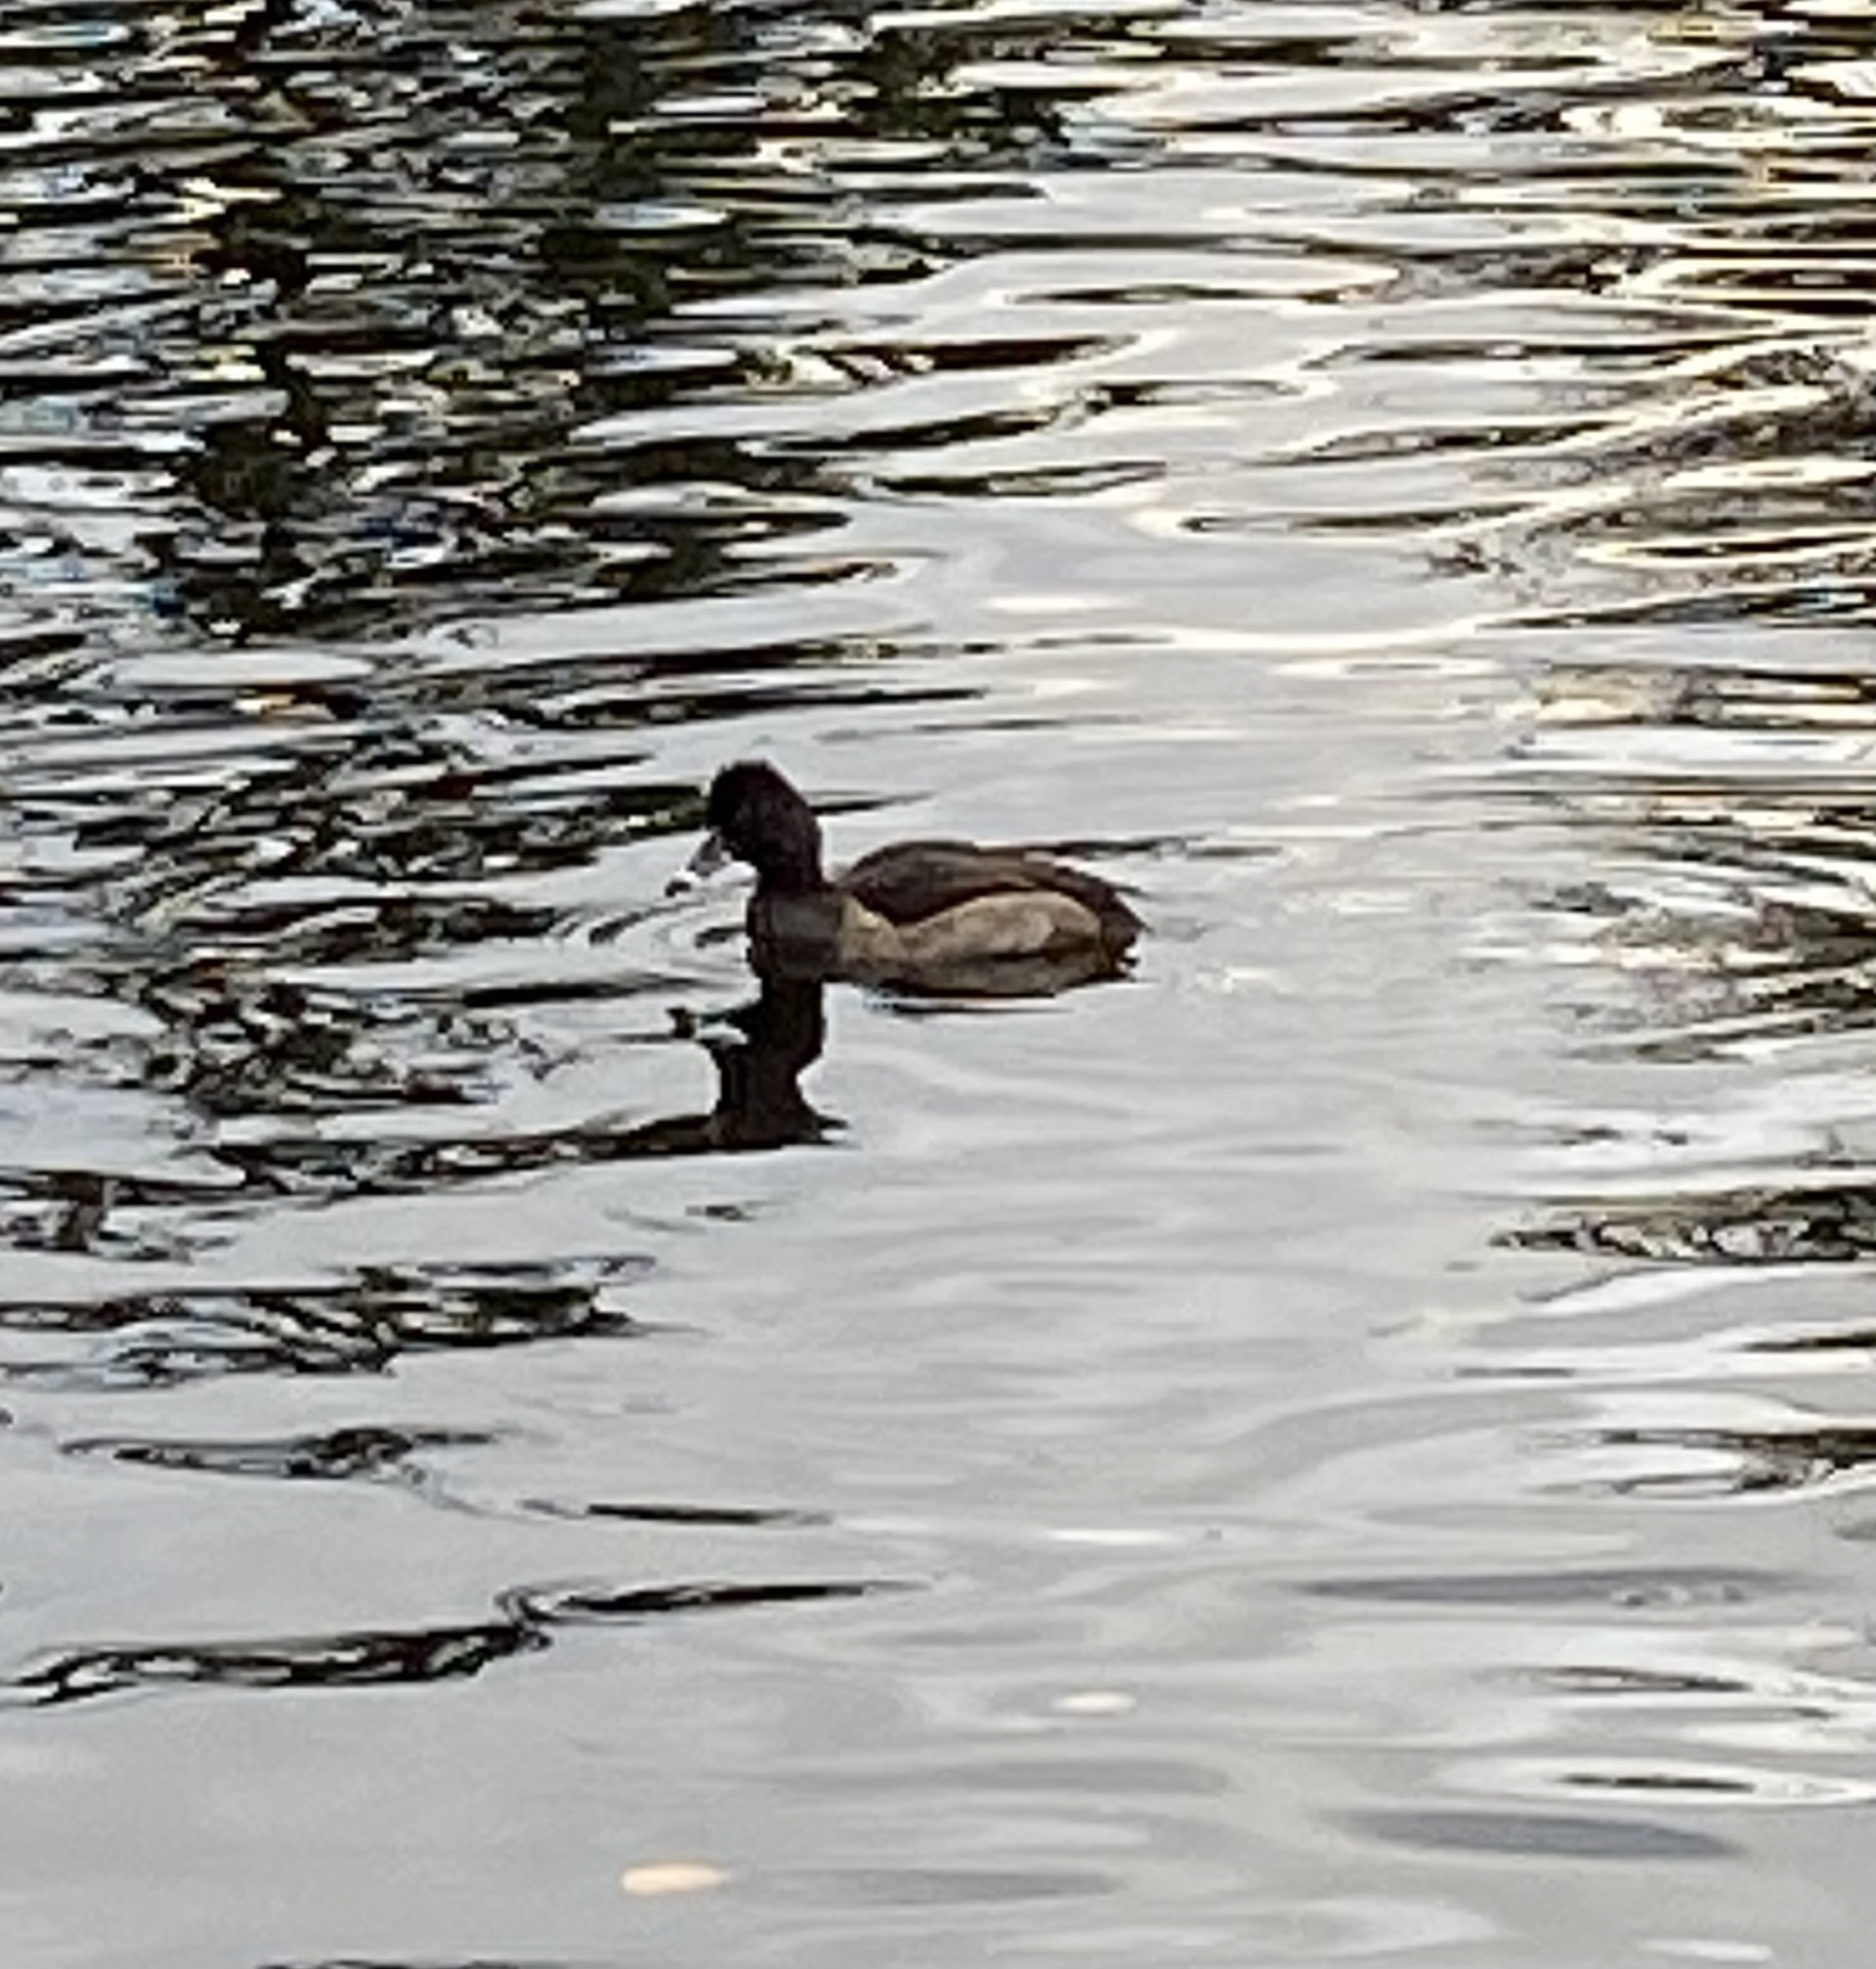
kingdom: Animalia
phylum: Chordata
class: Aves
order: Anseriformes
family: Anatidae
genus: Aythya
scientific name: Aythya collaris
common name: Ring-necked duck
